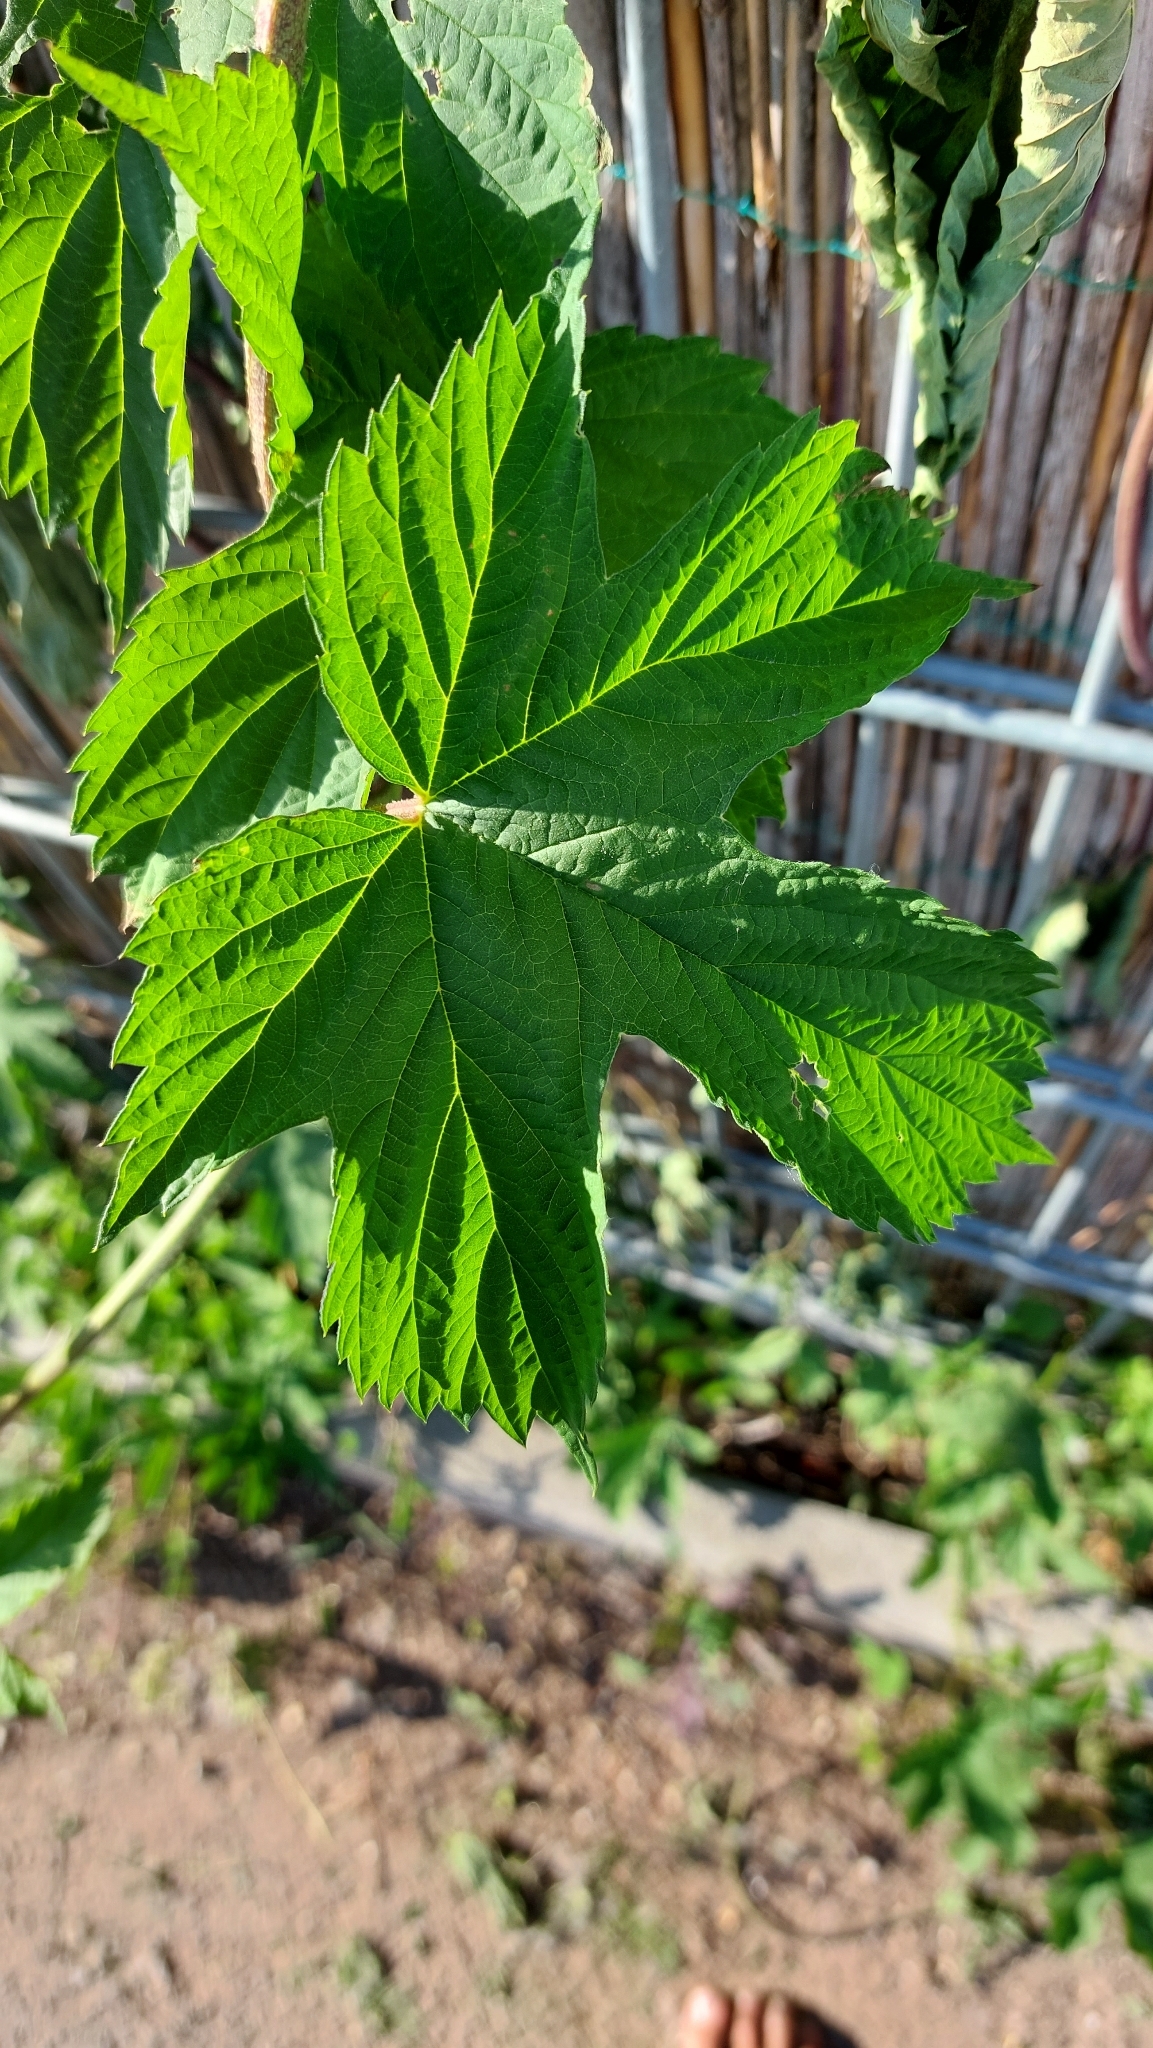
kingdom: Plantae
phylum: Tracheophyta
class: Magnoliopsida
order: Rosales
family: Cannabaceae
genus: Humulus
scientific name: Humulus lupulus
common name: Hop
